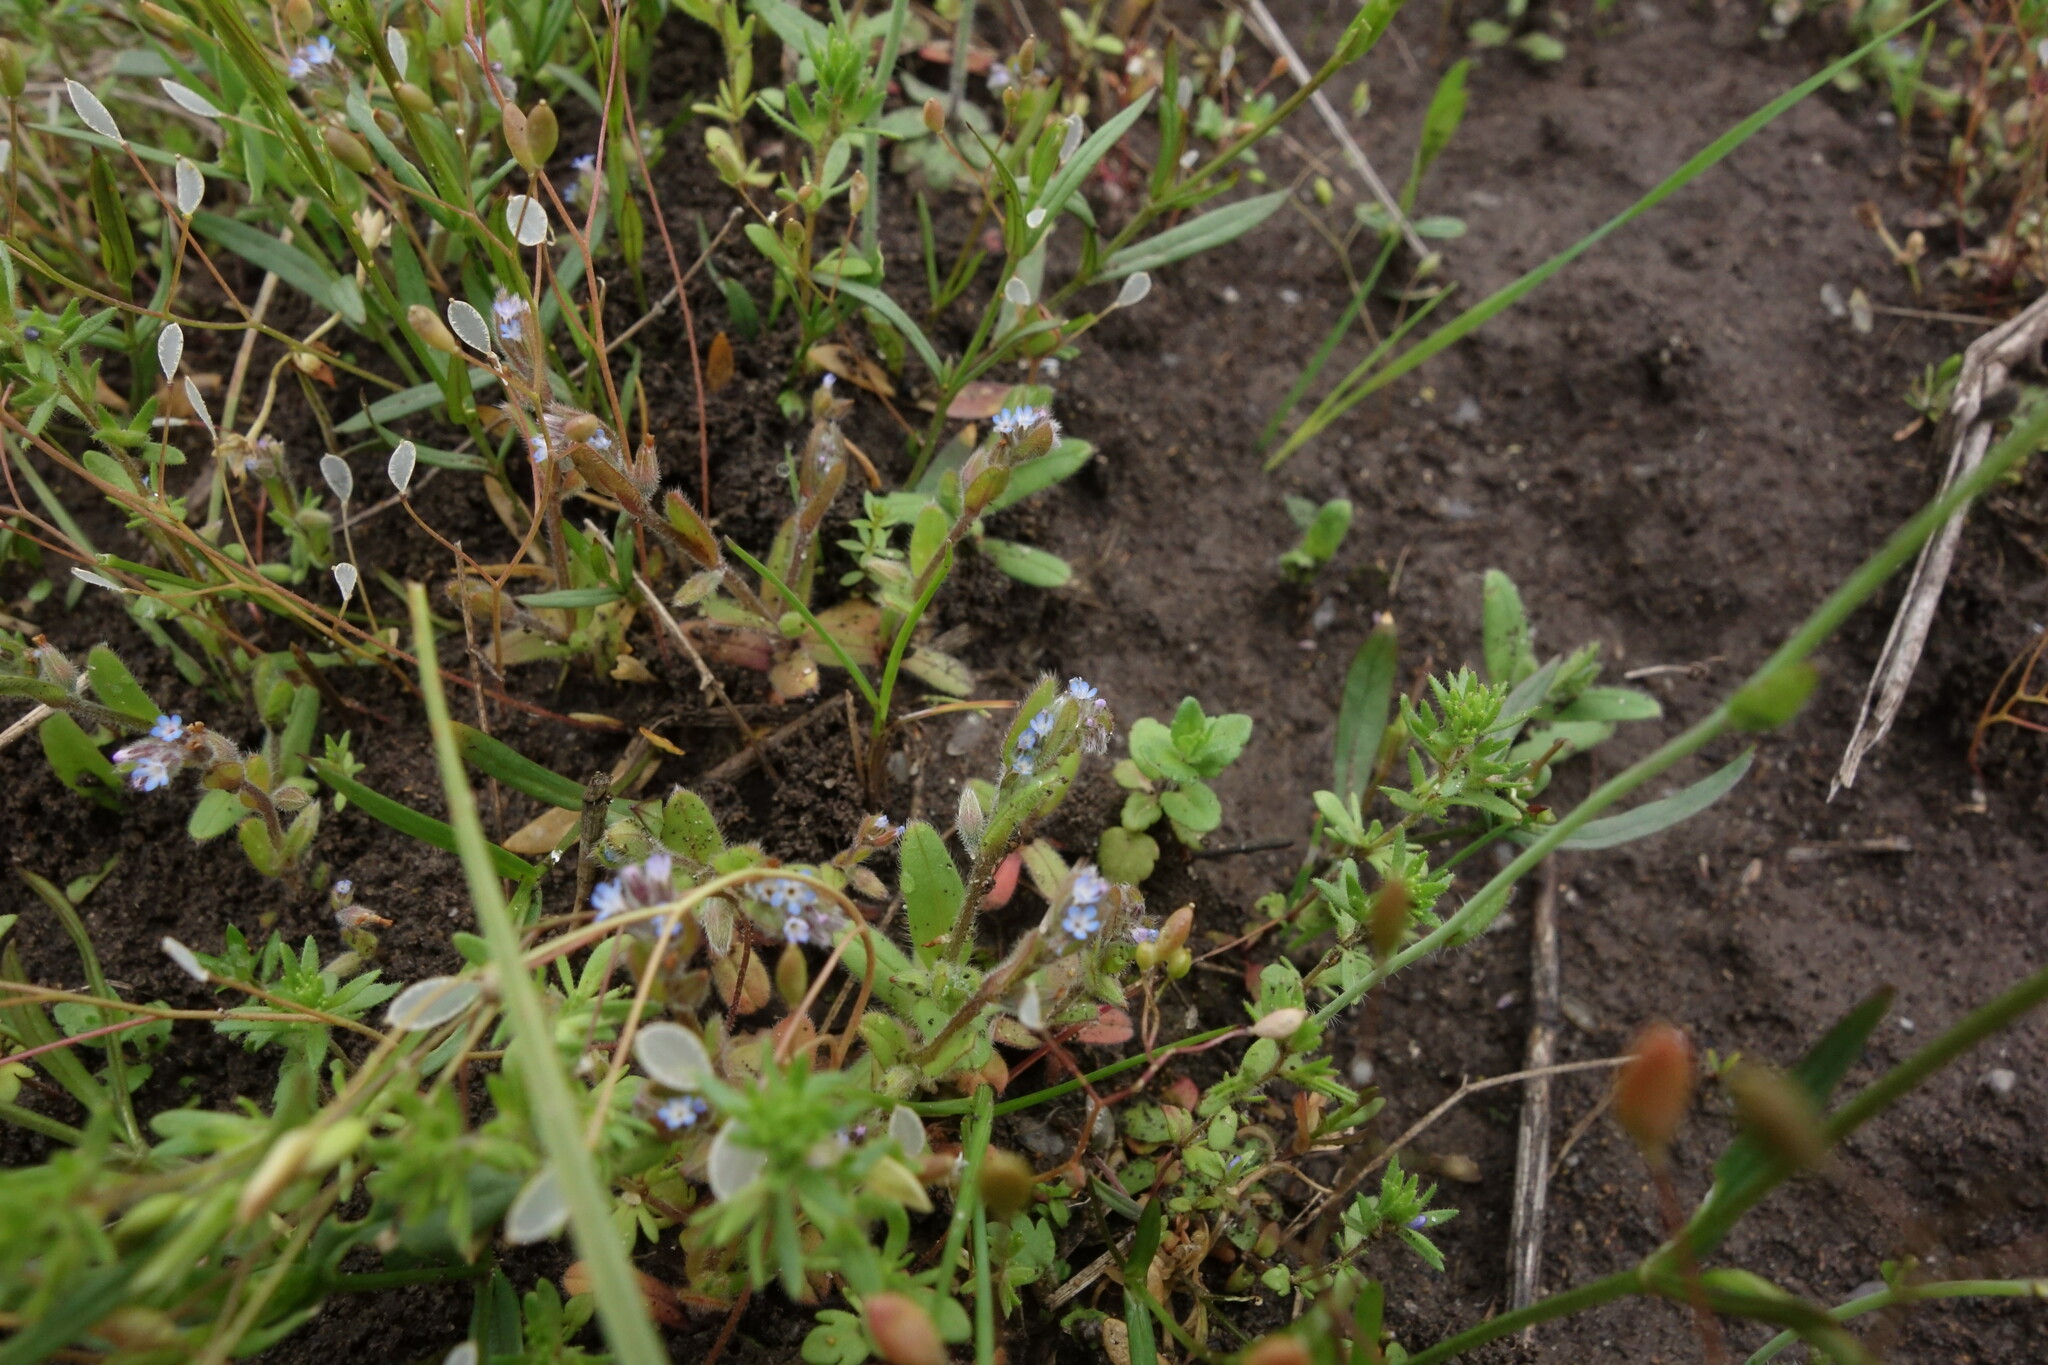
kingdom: Plantae
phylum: Tracheophyta
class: Magnoliopsida
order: Boraginales
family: Boraginaceae
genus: Myosotis
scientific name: Myosotis stricta
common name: Strict forget-me-not
